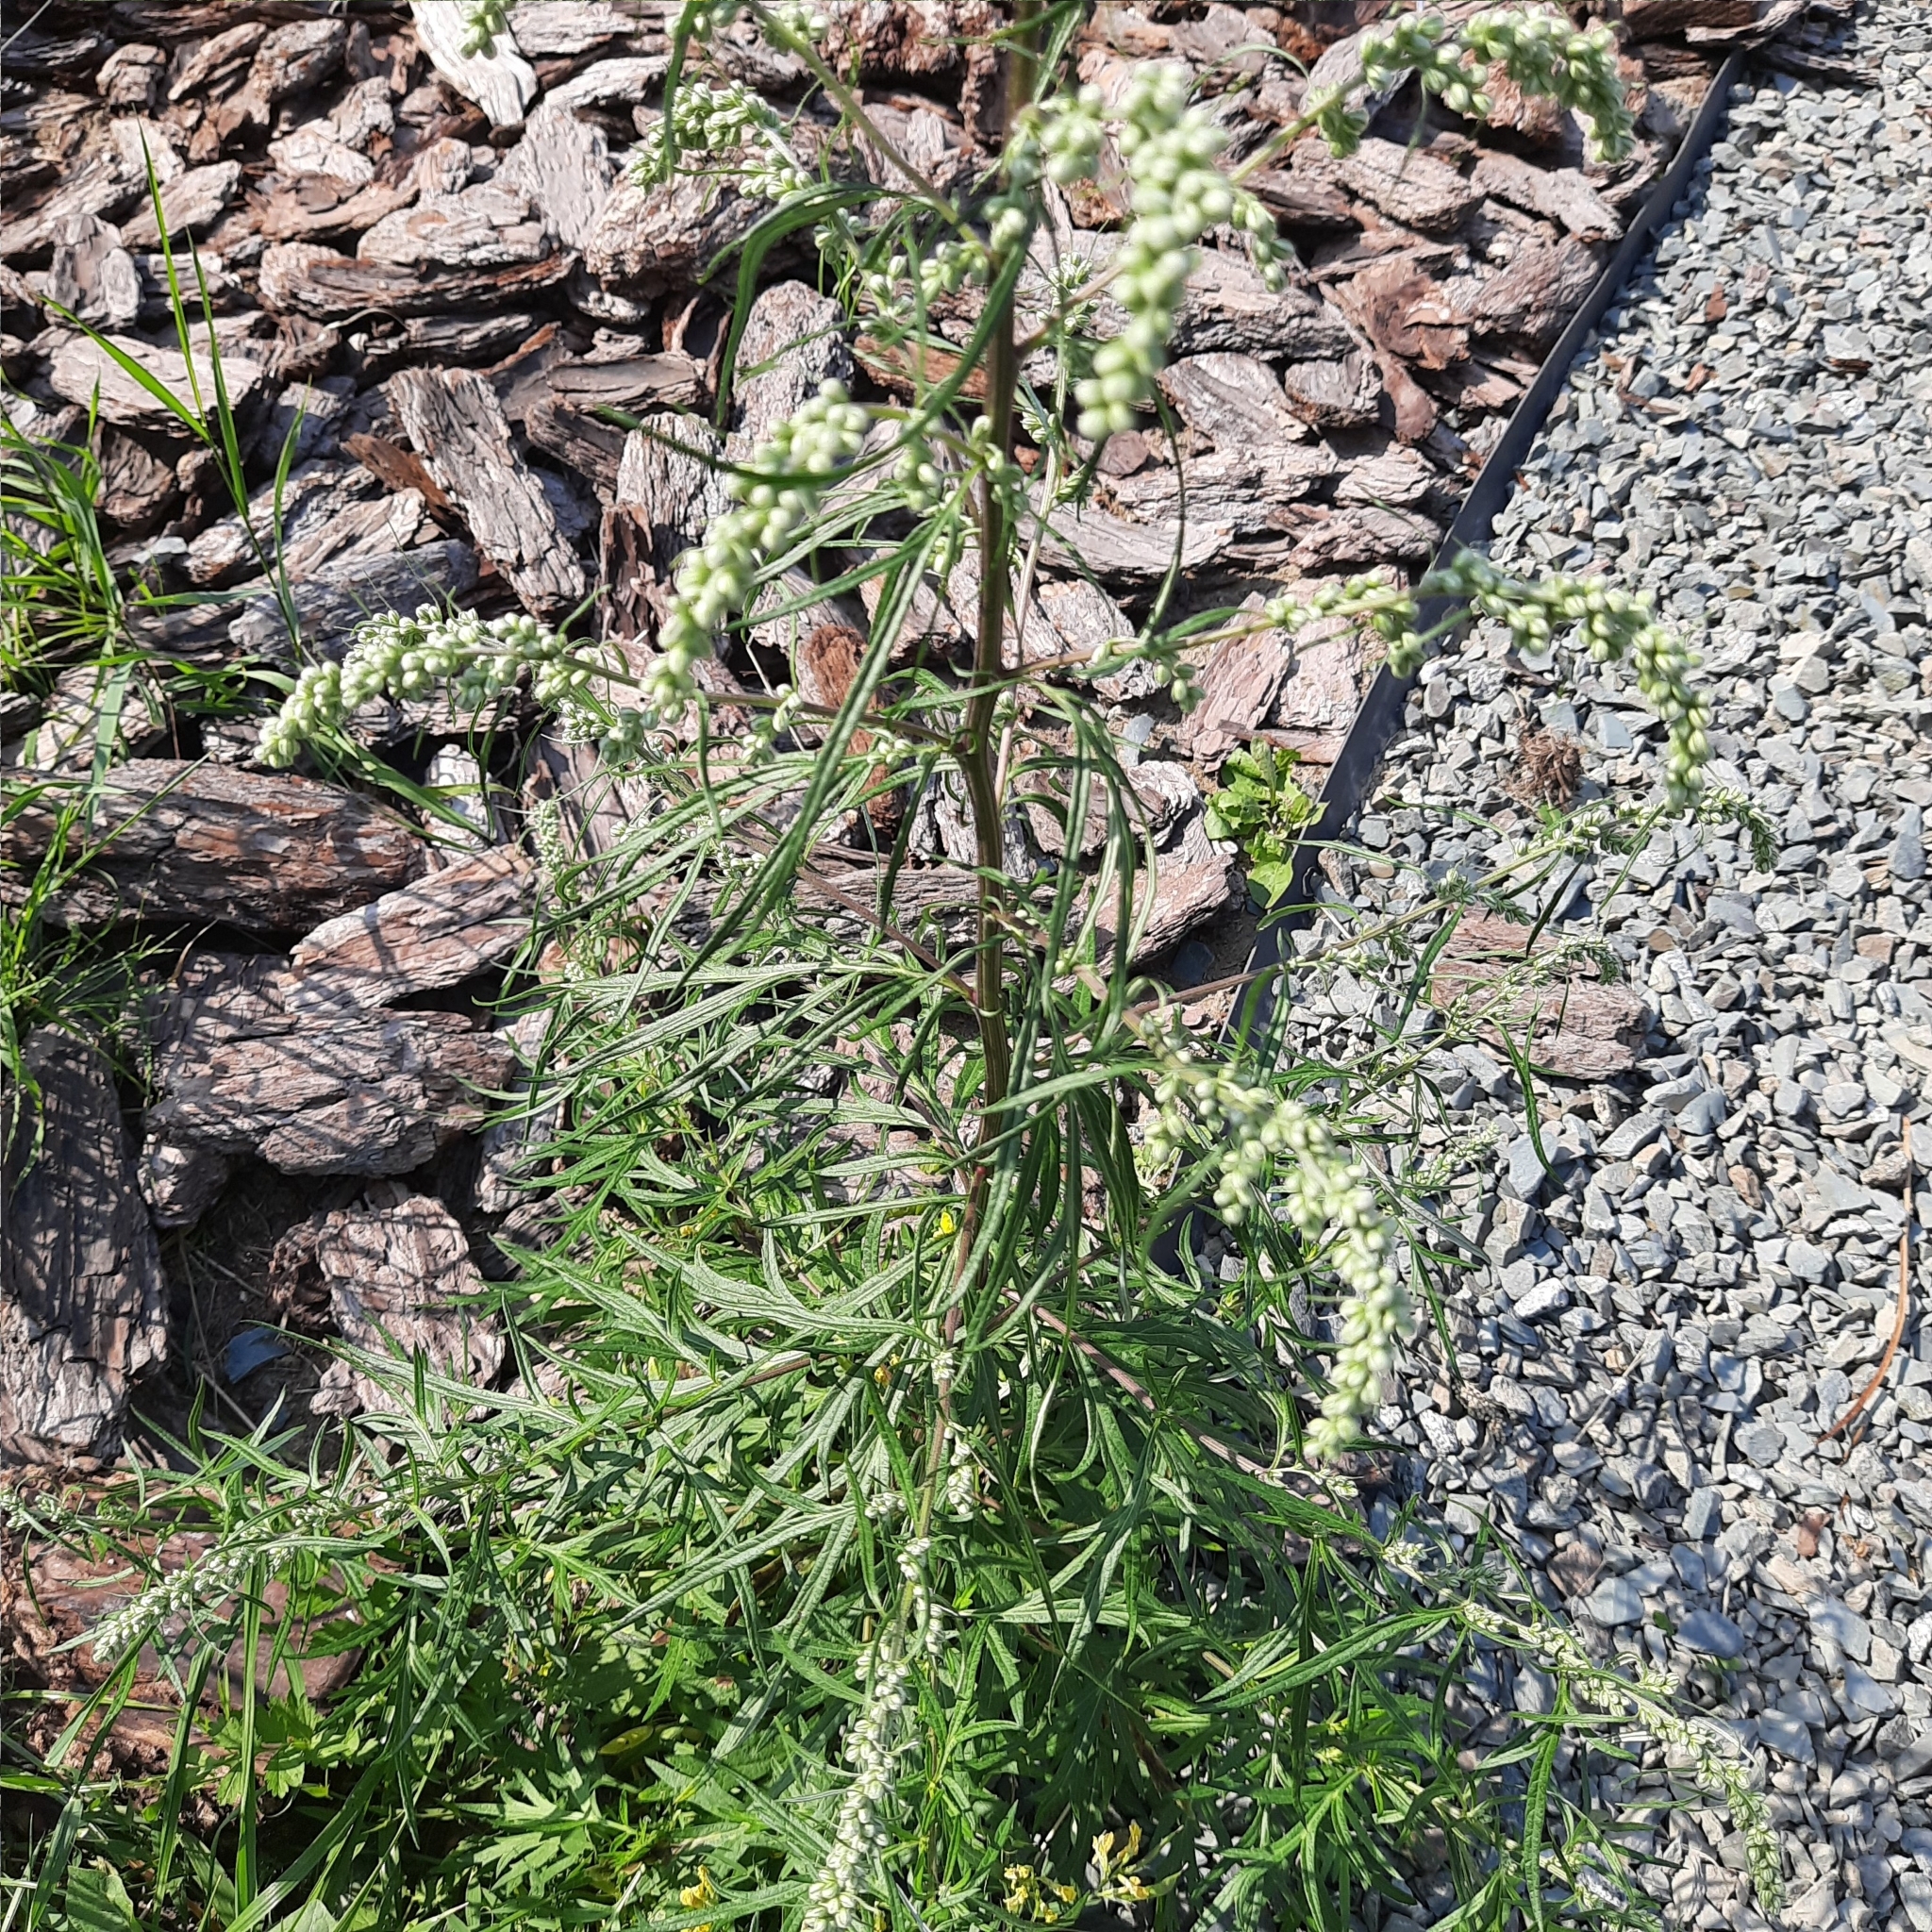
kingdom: Plantae
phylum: Tracheophyta
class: Magnoliopsida
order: Asterales
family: Asteraceae
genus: Artemisia
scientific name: Artemisia vulgaris
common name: Mugwort
